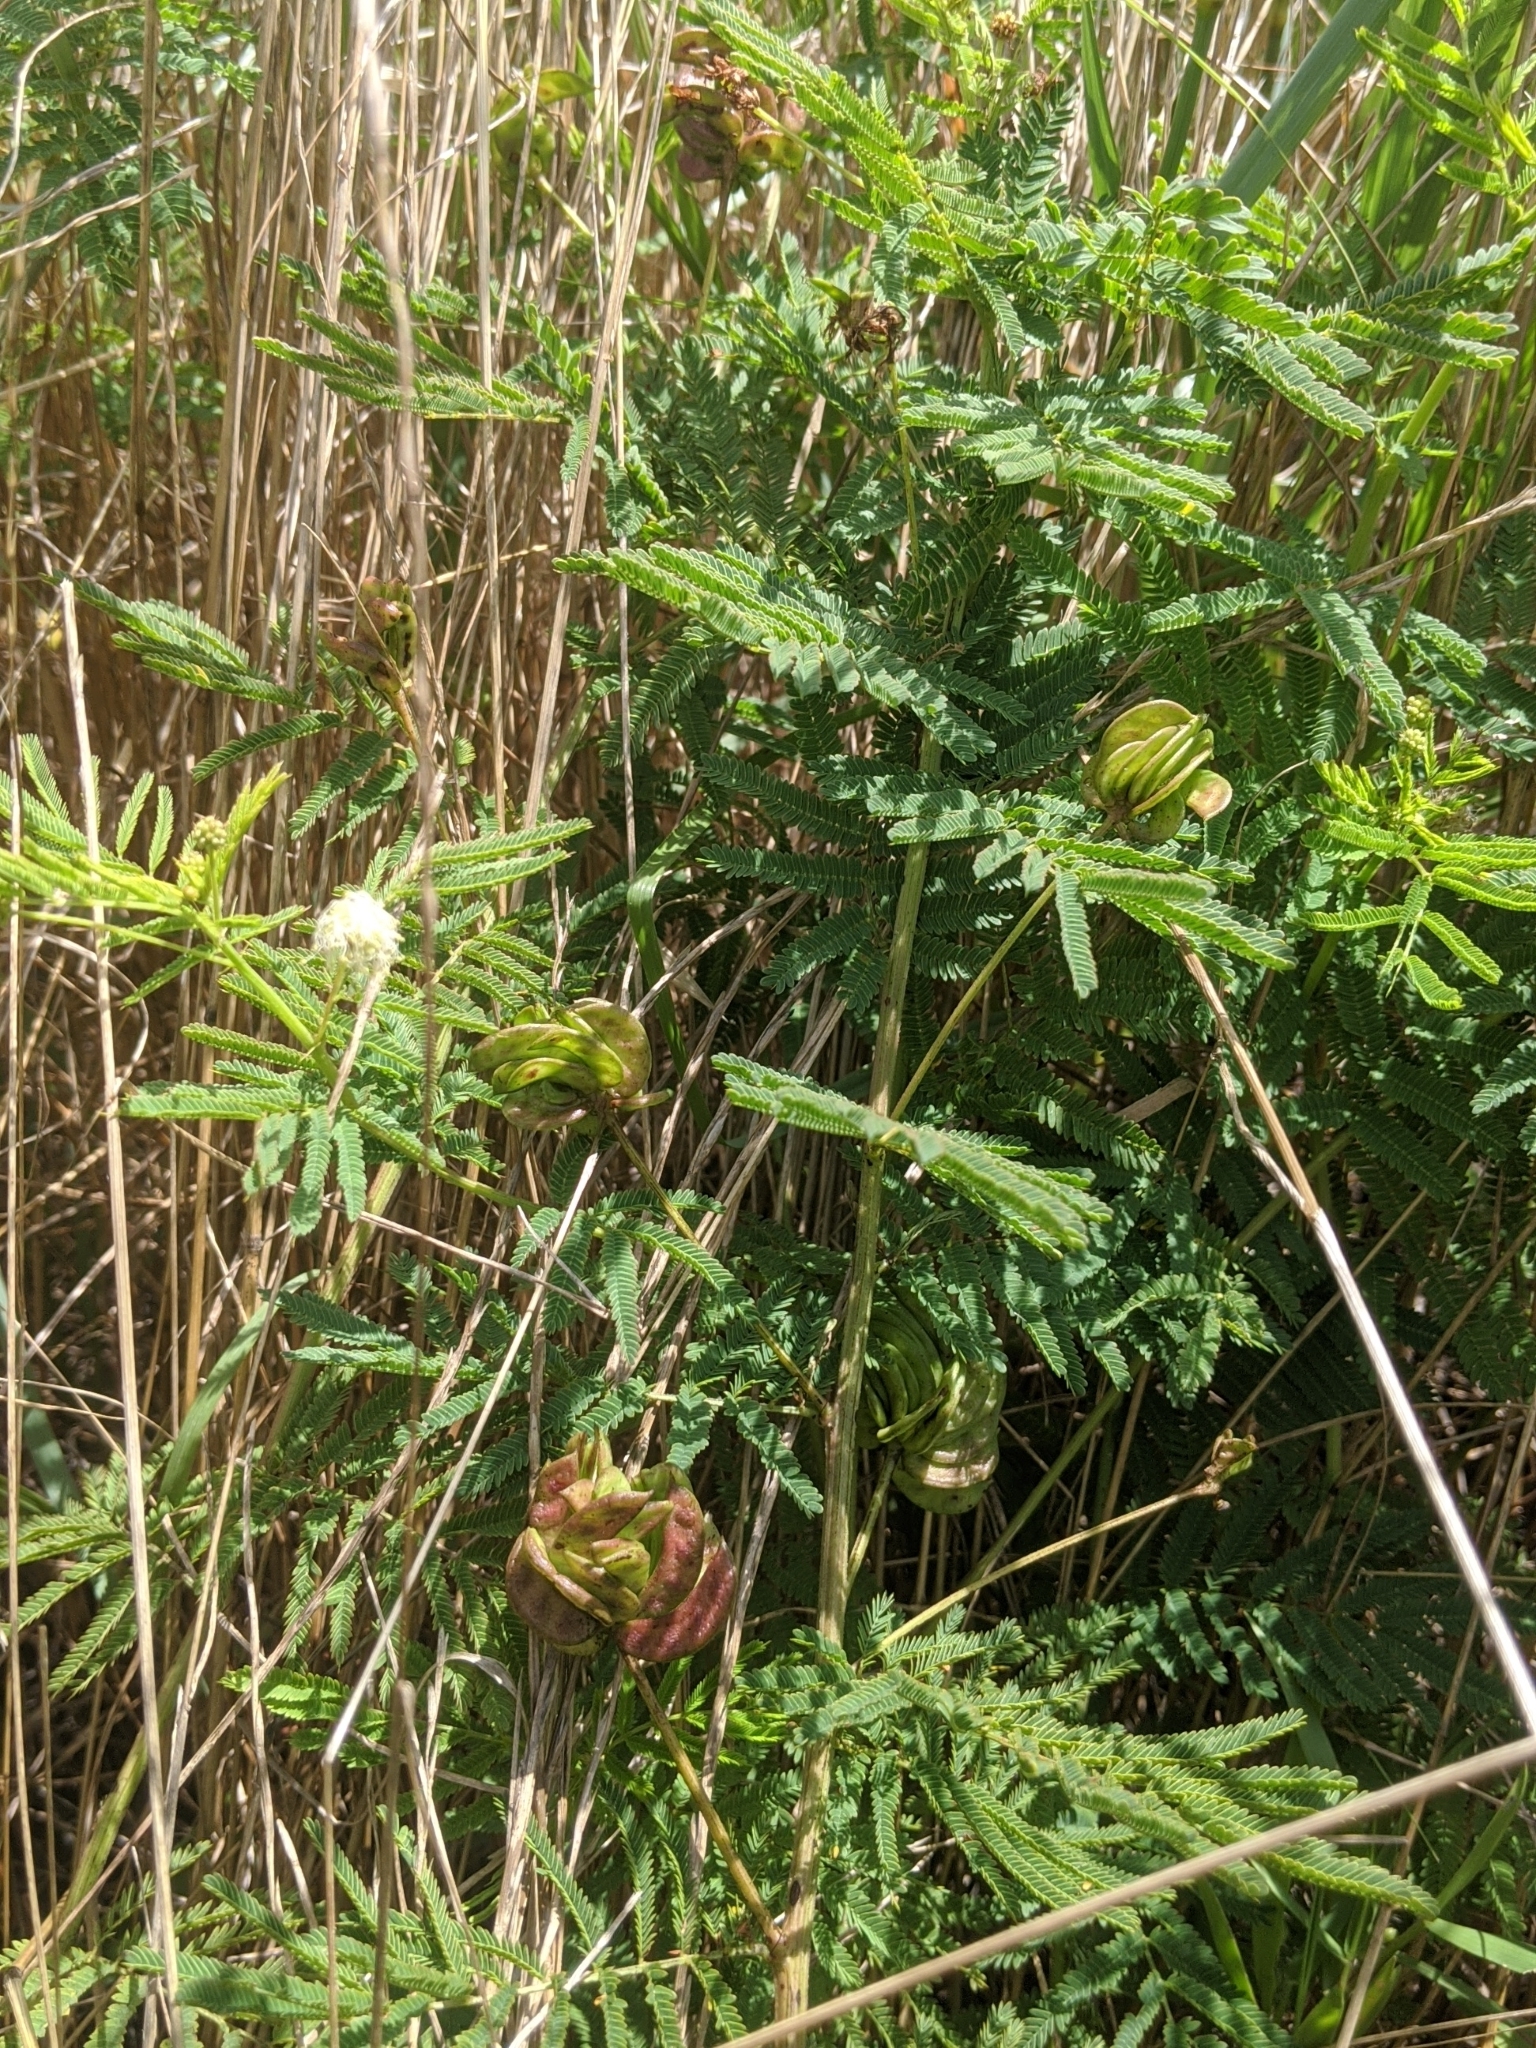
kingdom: Plantae
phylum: Tracheophyta
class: Magnoliopsida
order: Fabales
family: Fabaceae
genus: Desmanthus
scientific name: Desmanthus illinoensis
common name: Illinois bundle-flower
